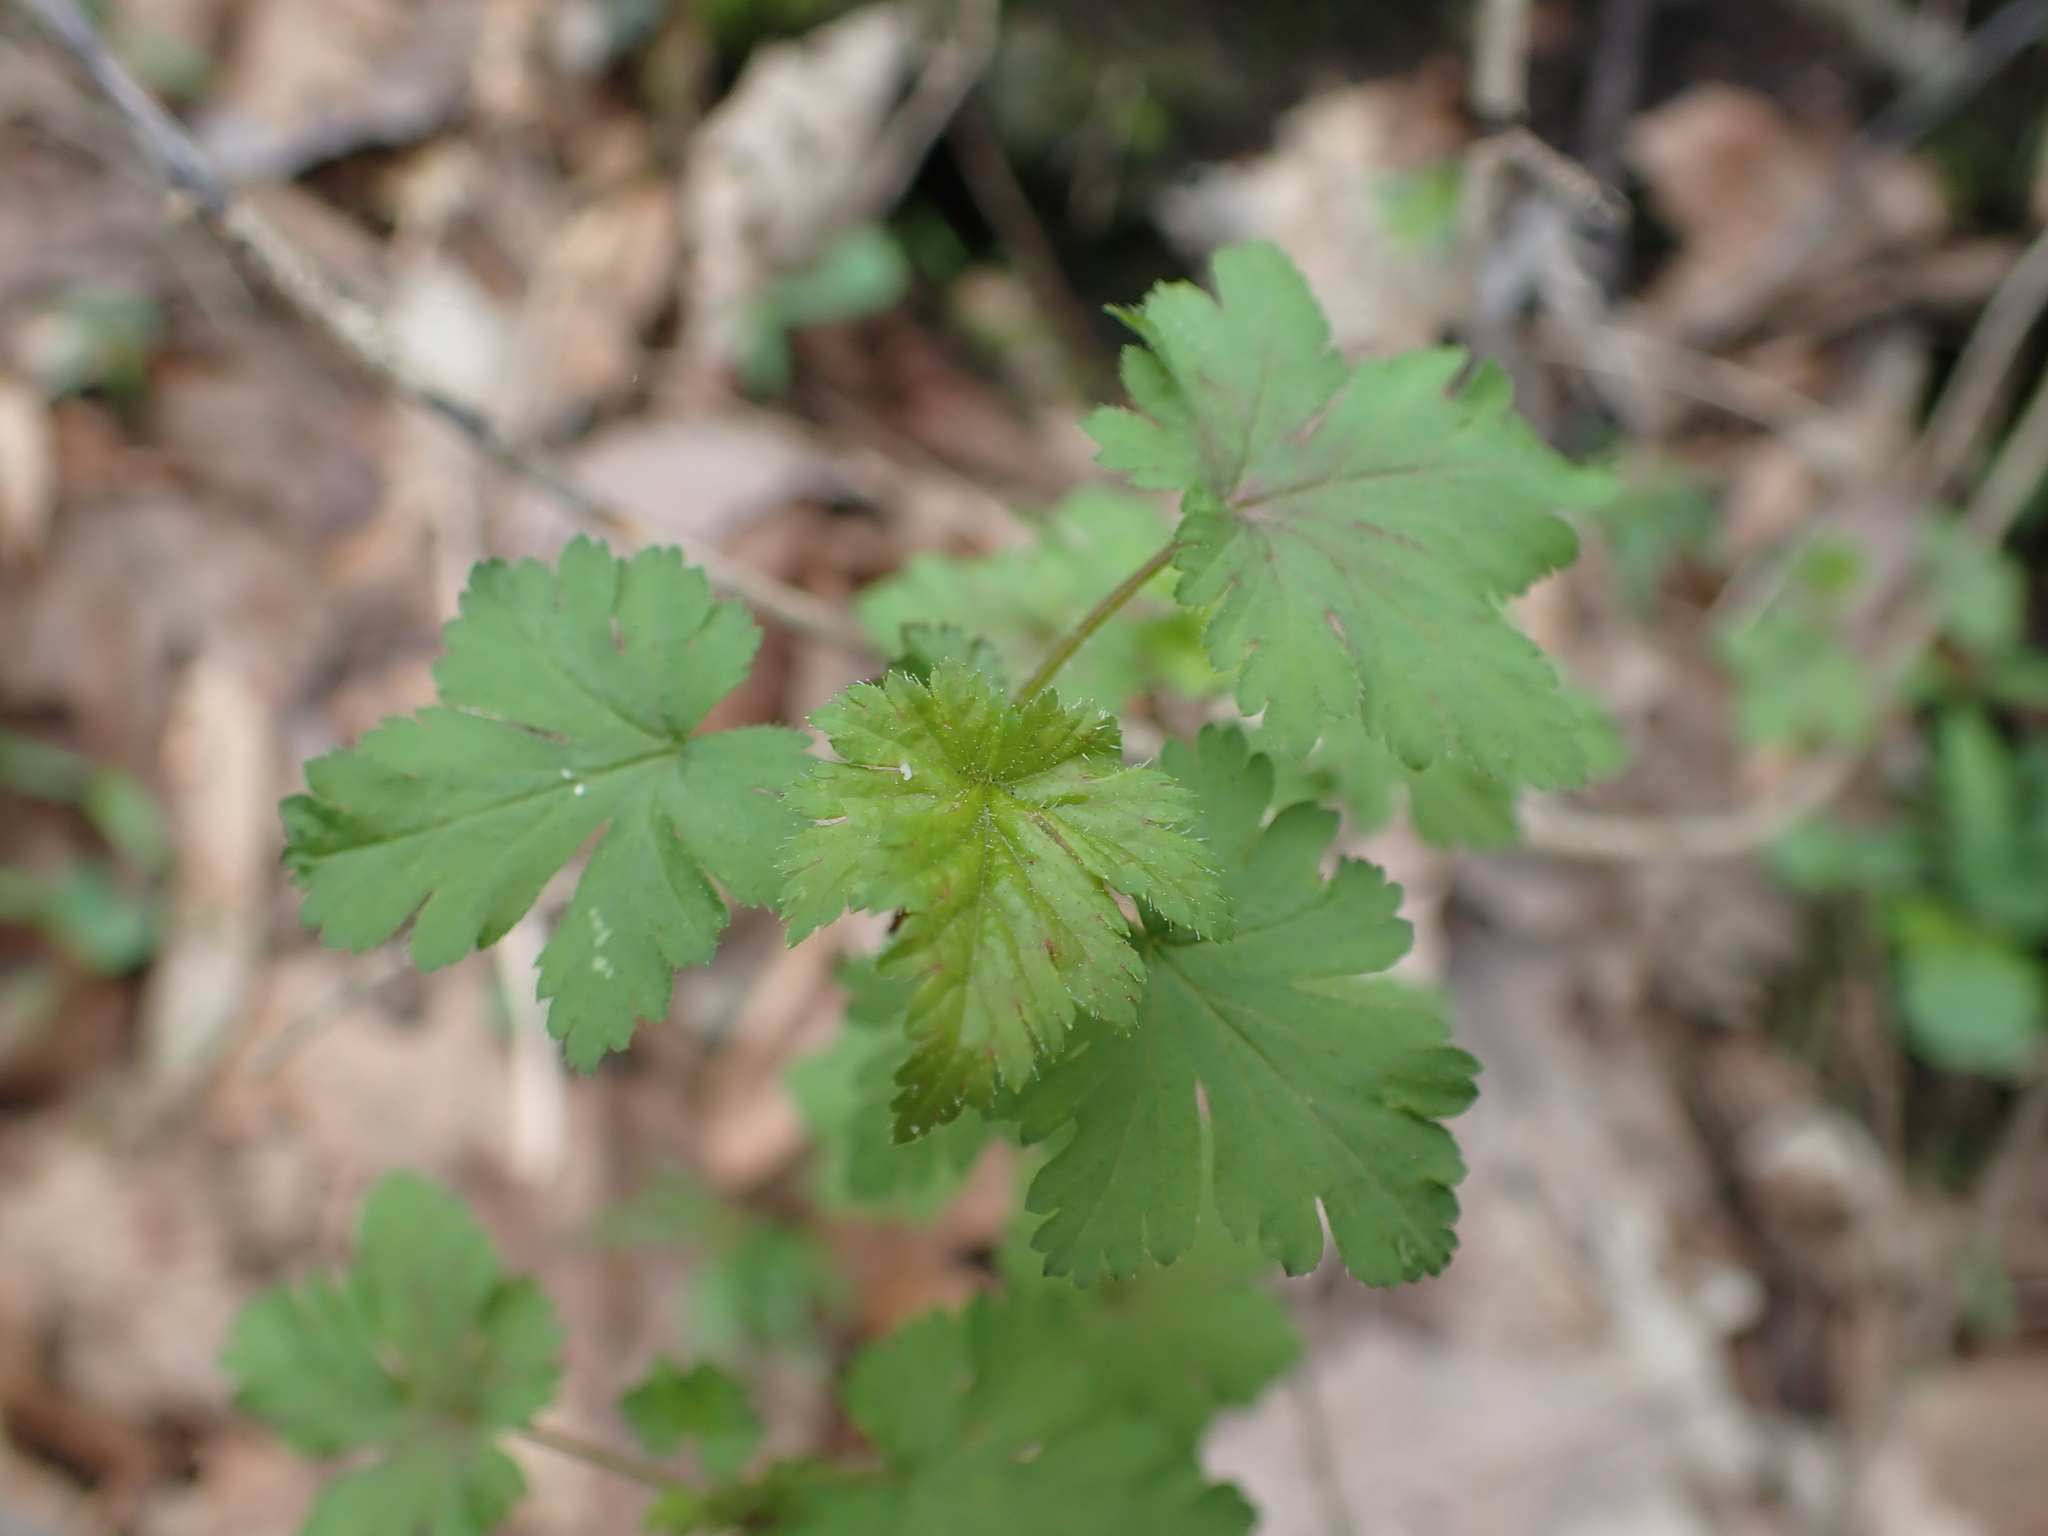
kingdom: Plantae
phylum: Tracheophyta
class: Magnoliopsida
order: Saxifragales
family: Grossulariaceae
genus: Ribes
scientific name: Ribes cynosbati
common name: American gooseberry
